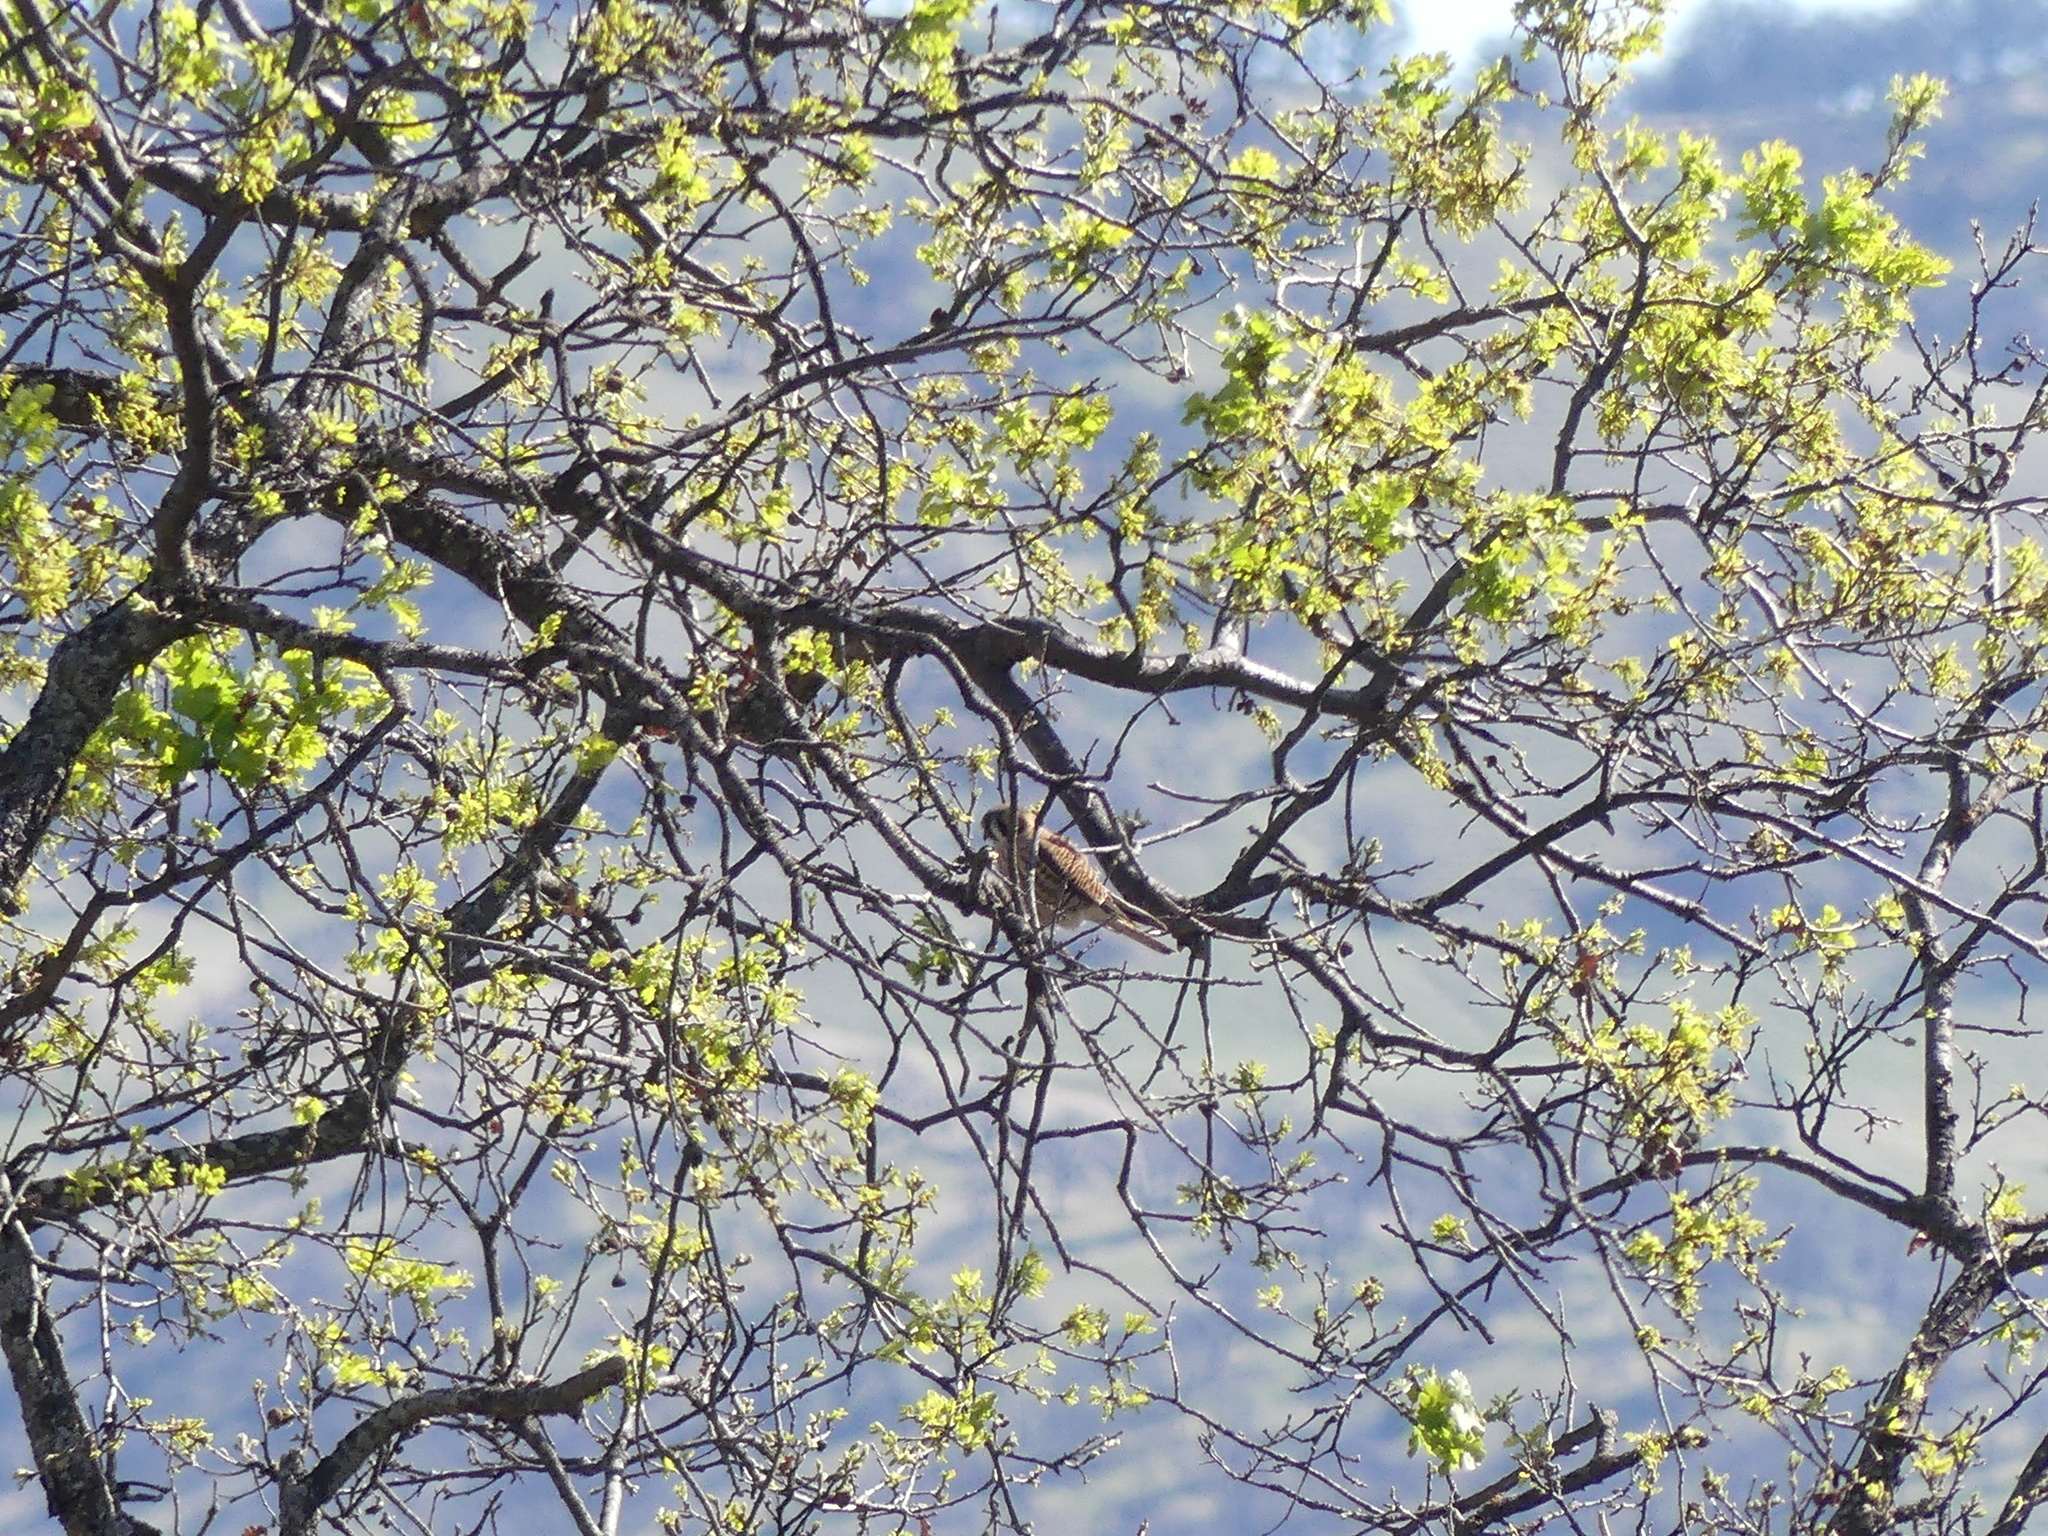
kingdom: Animalia
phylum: Chordata
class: Aves
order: Falconiformes
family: Falconidae
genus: Falco
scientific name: Falco sparverius
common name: American kestrel
